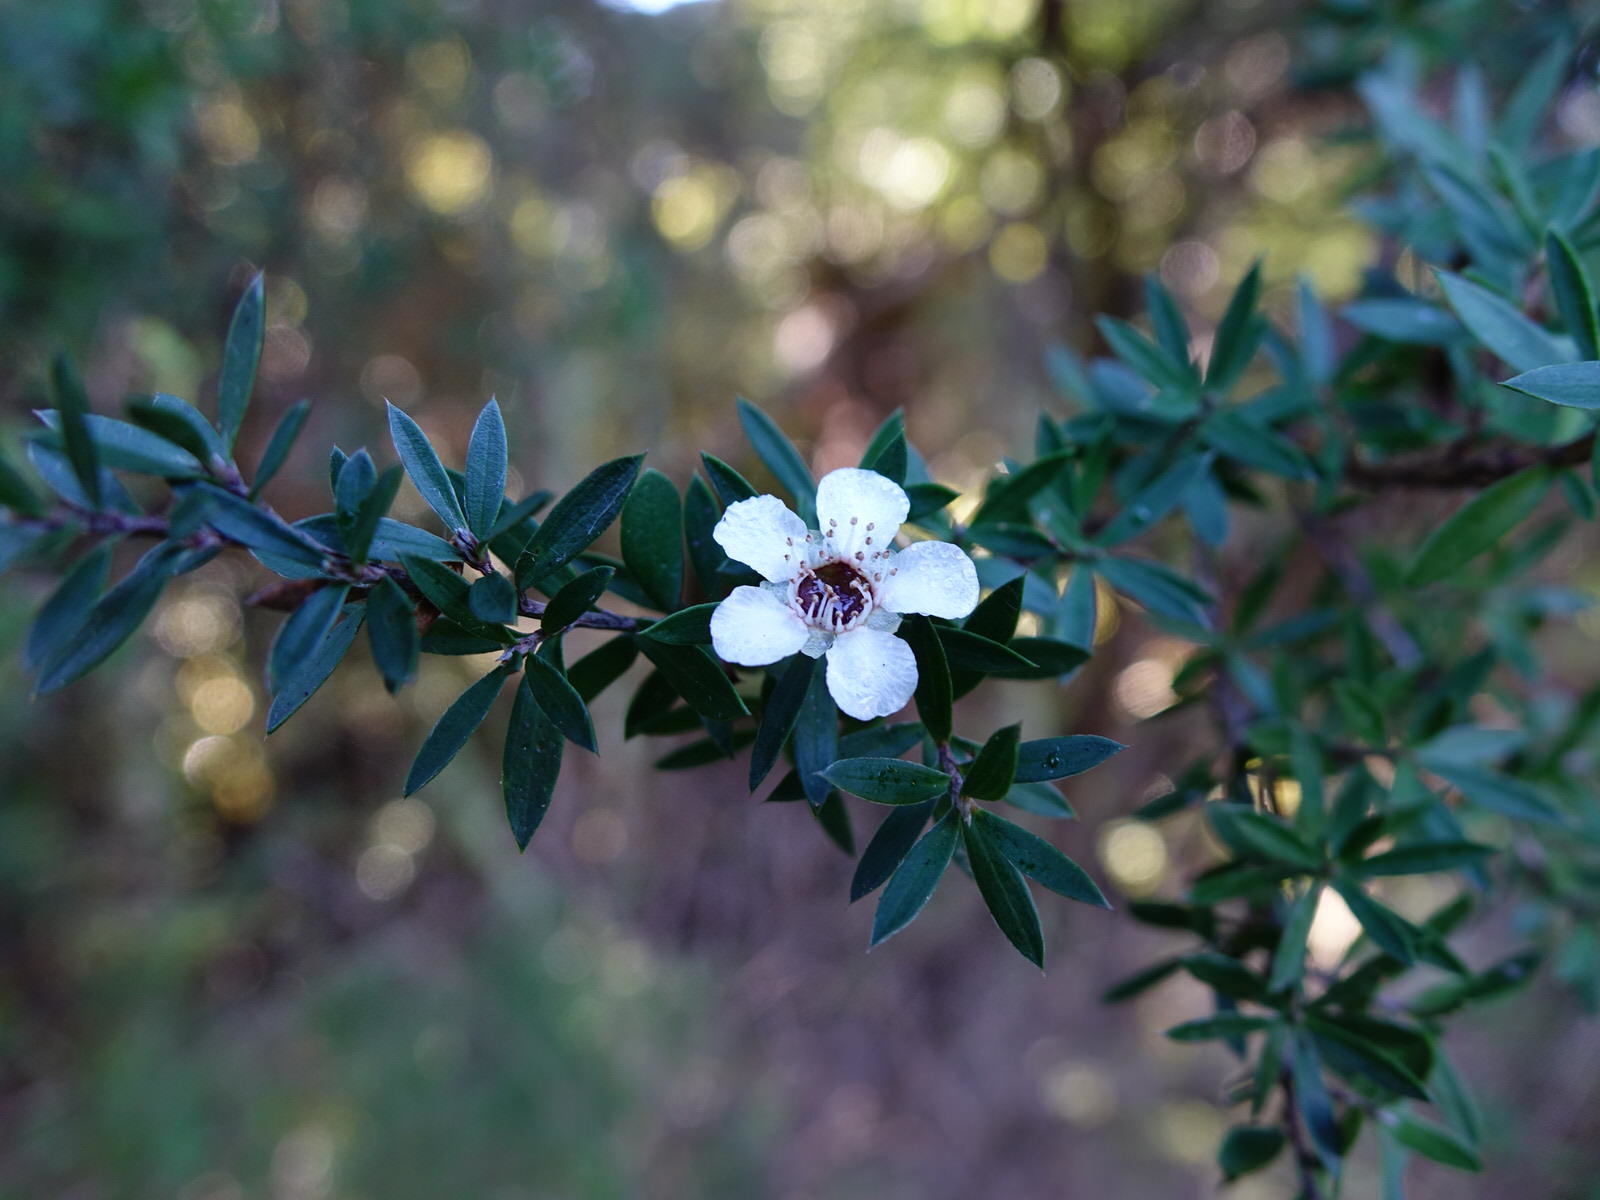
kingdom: Plantae
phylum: Tracheophyta
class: Magnoliopsida
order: Myrtales
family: Myrtaceae
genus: Leptospermum
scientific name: Leptospermum scoparium
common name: Broom tea-tree
